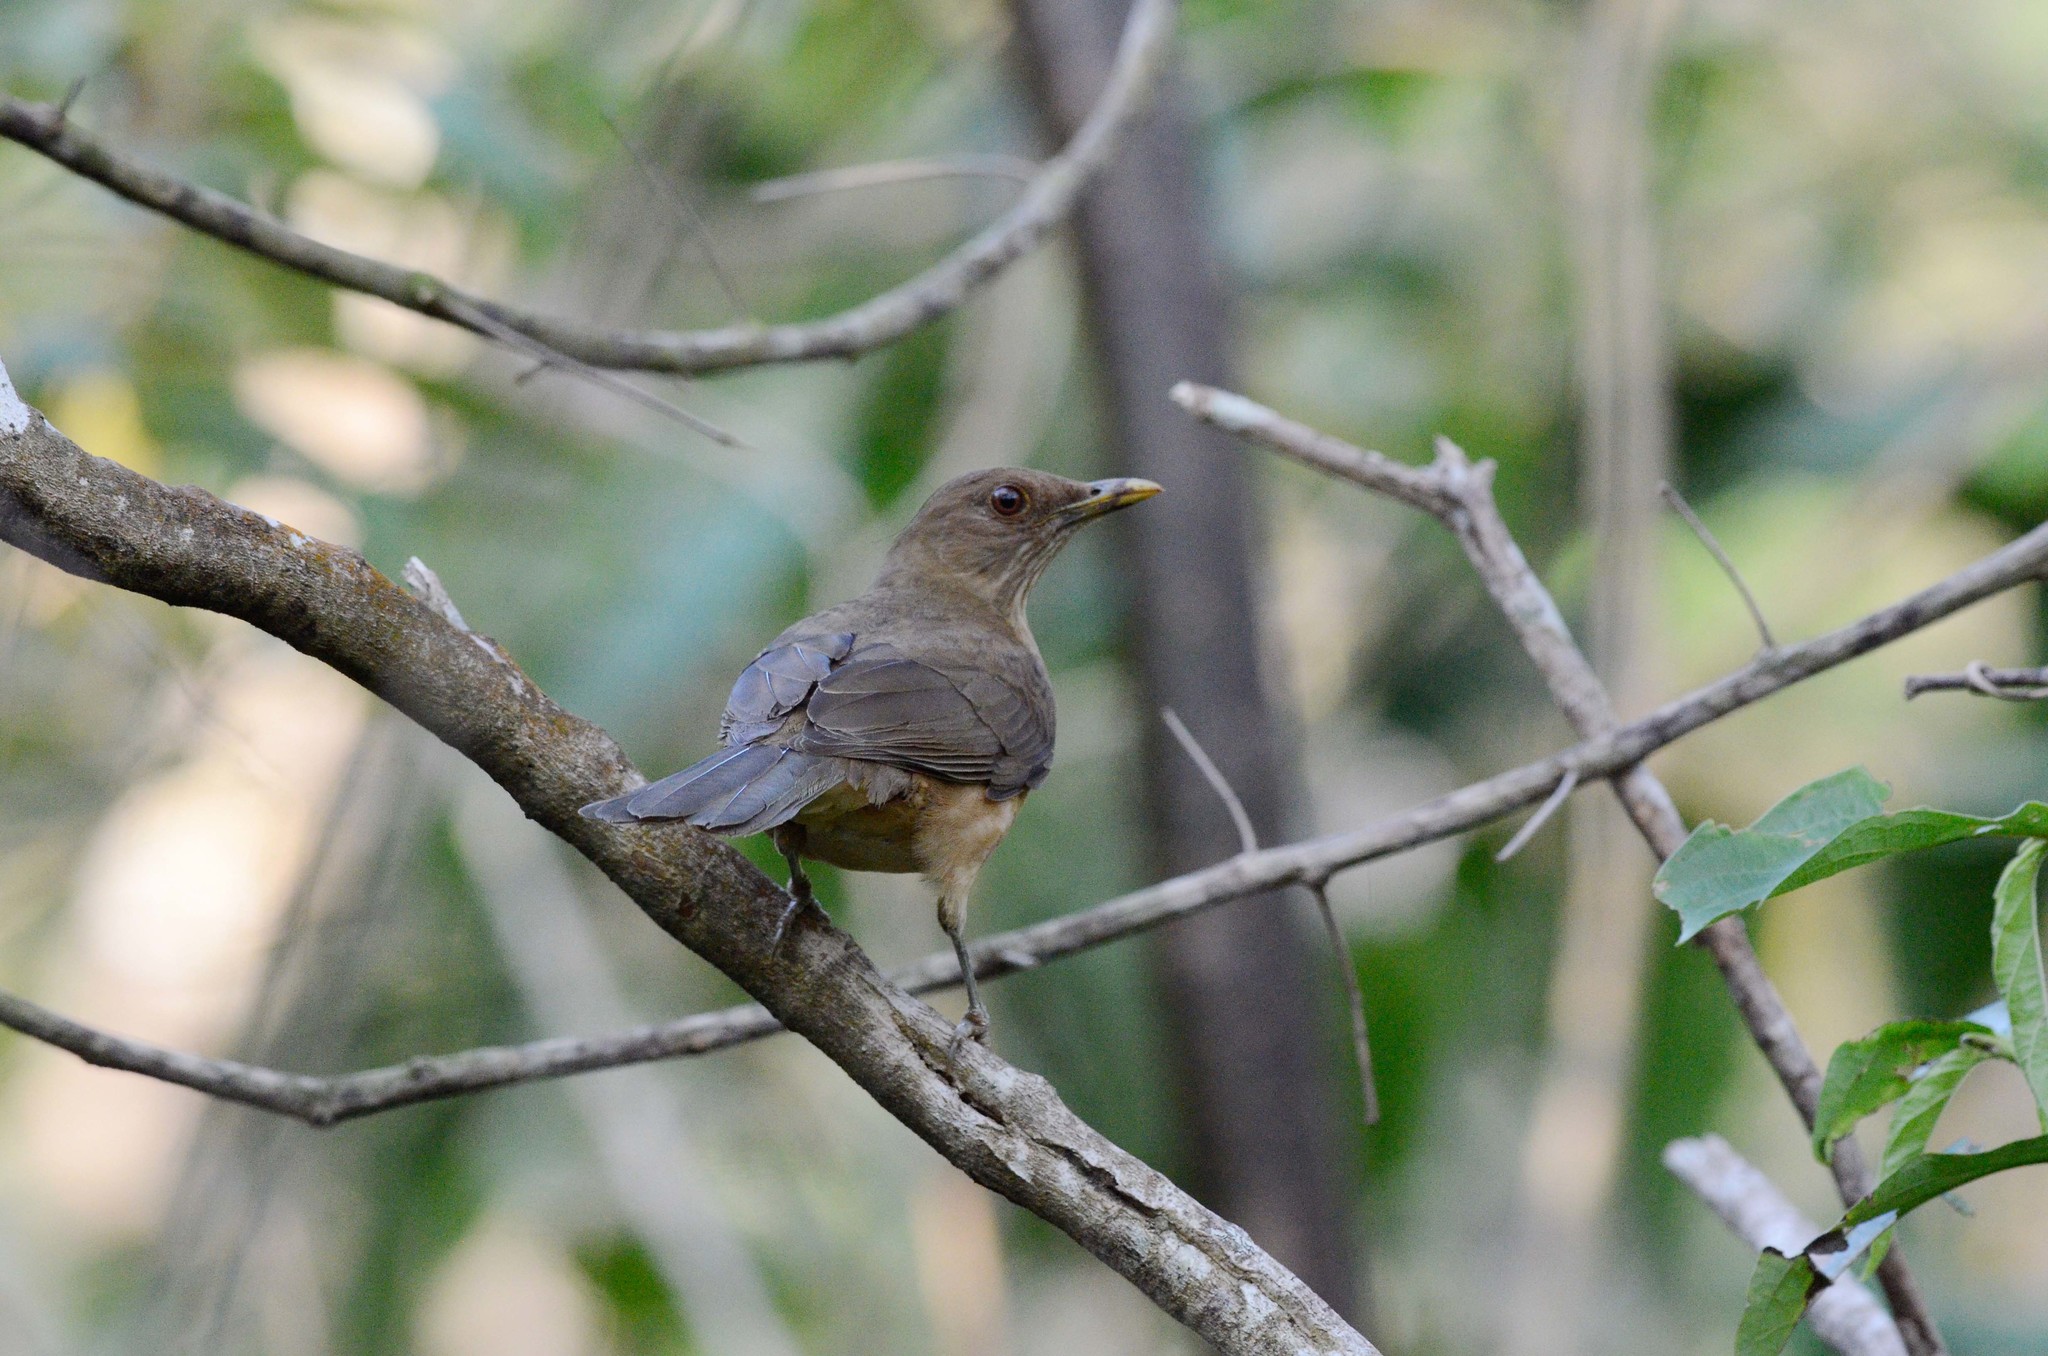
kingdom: Animalia
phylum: Chordata
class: Aves
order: Passeriformes
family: Turdidae
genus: Turdus
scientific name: Turdus grayi
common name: Clay-colored thrush
